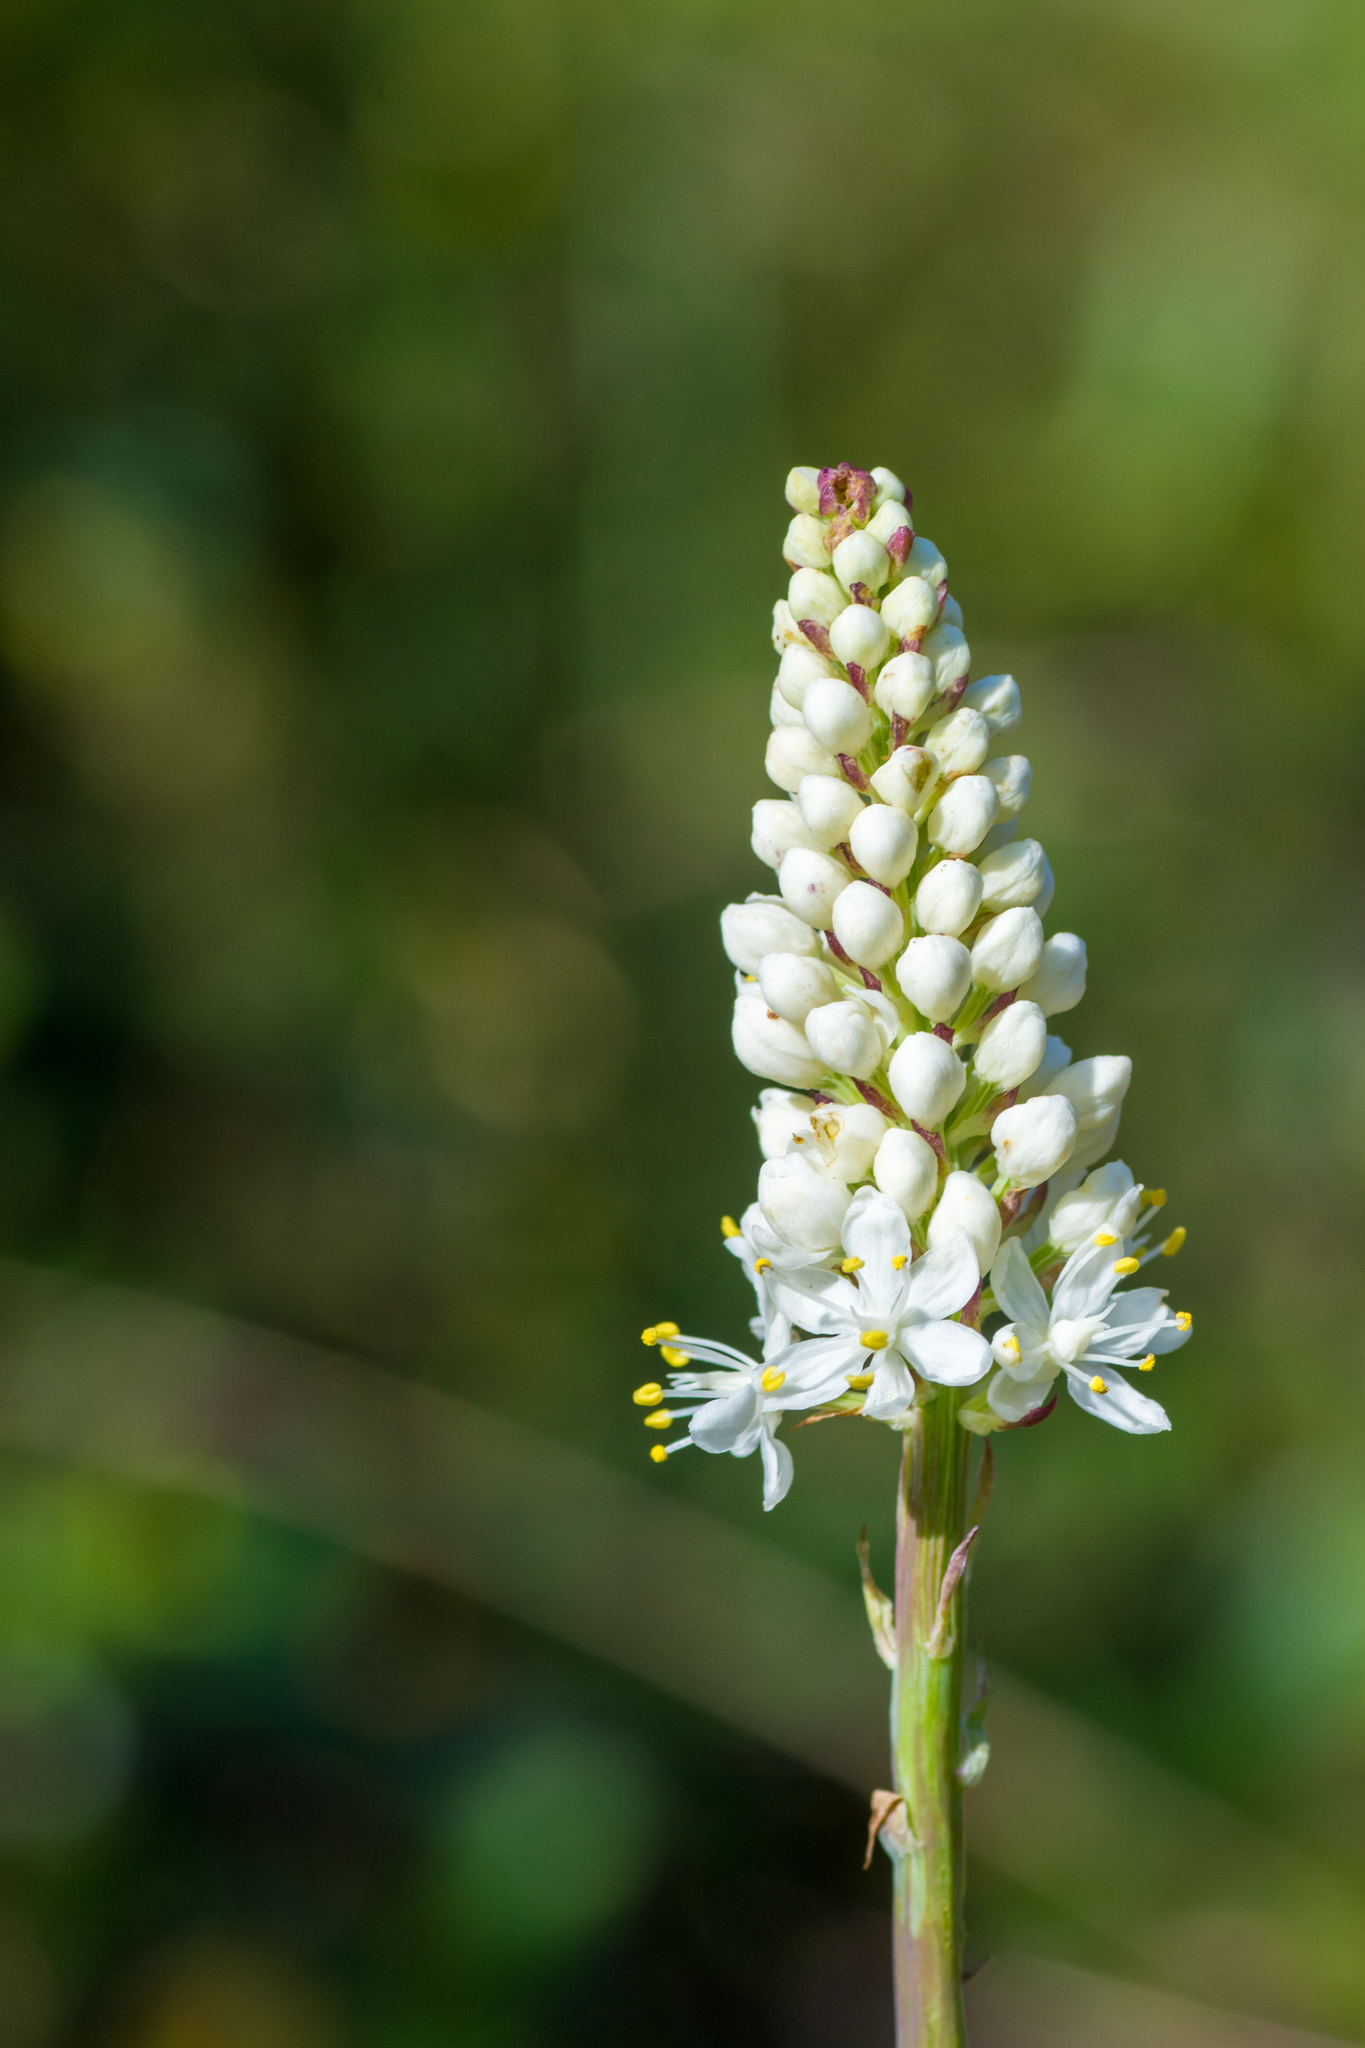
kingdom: Plantae
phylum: Tracheophyta
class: Liliopsida
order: Liliales
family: Melanthiaceae
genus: Stenanthium
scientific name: Stenanthium densum
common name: Crow-poison
